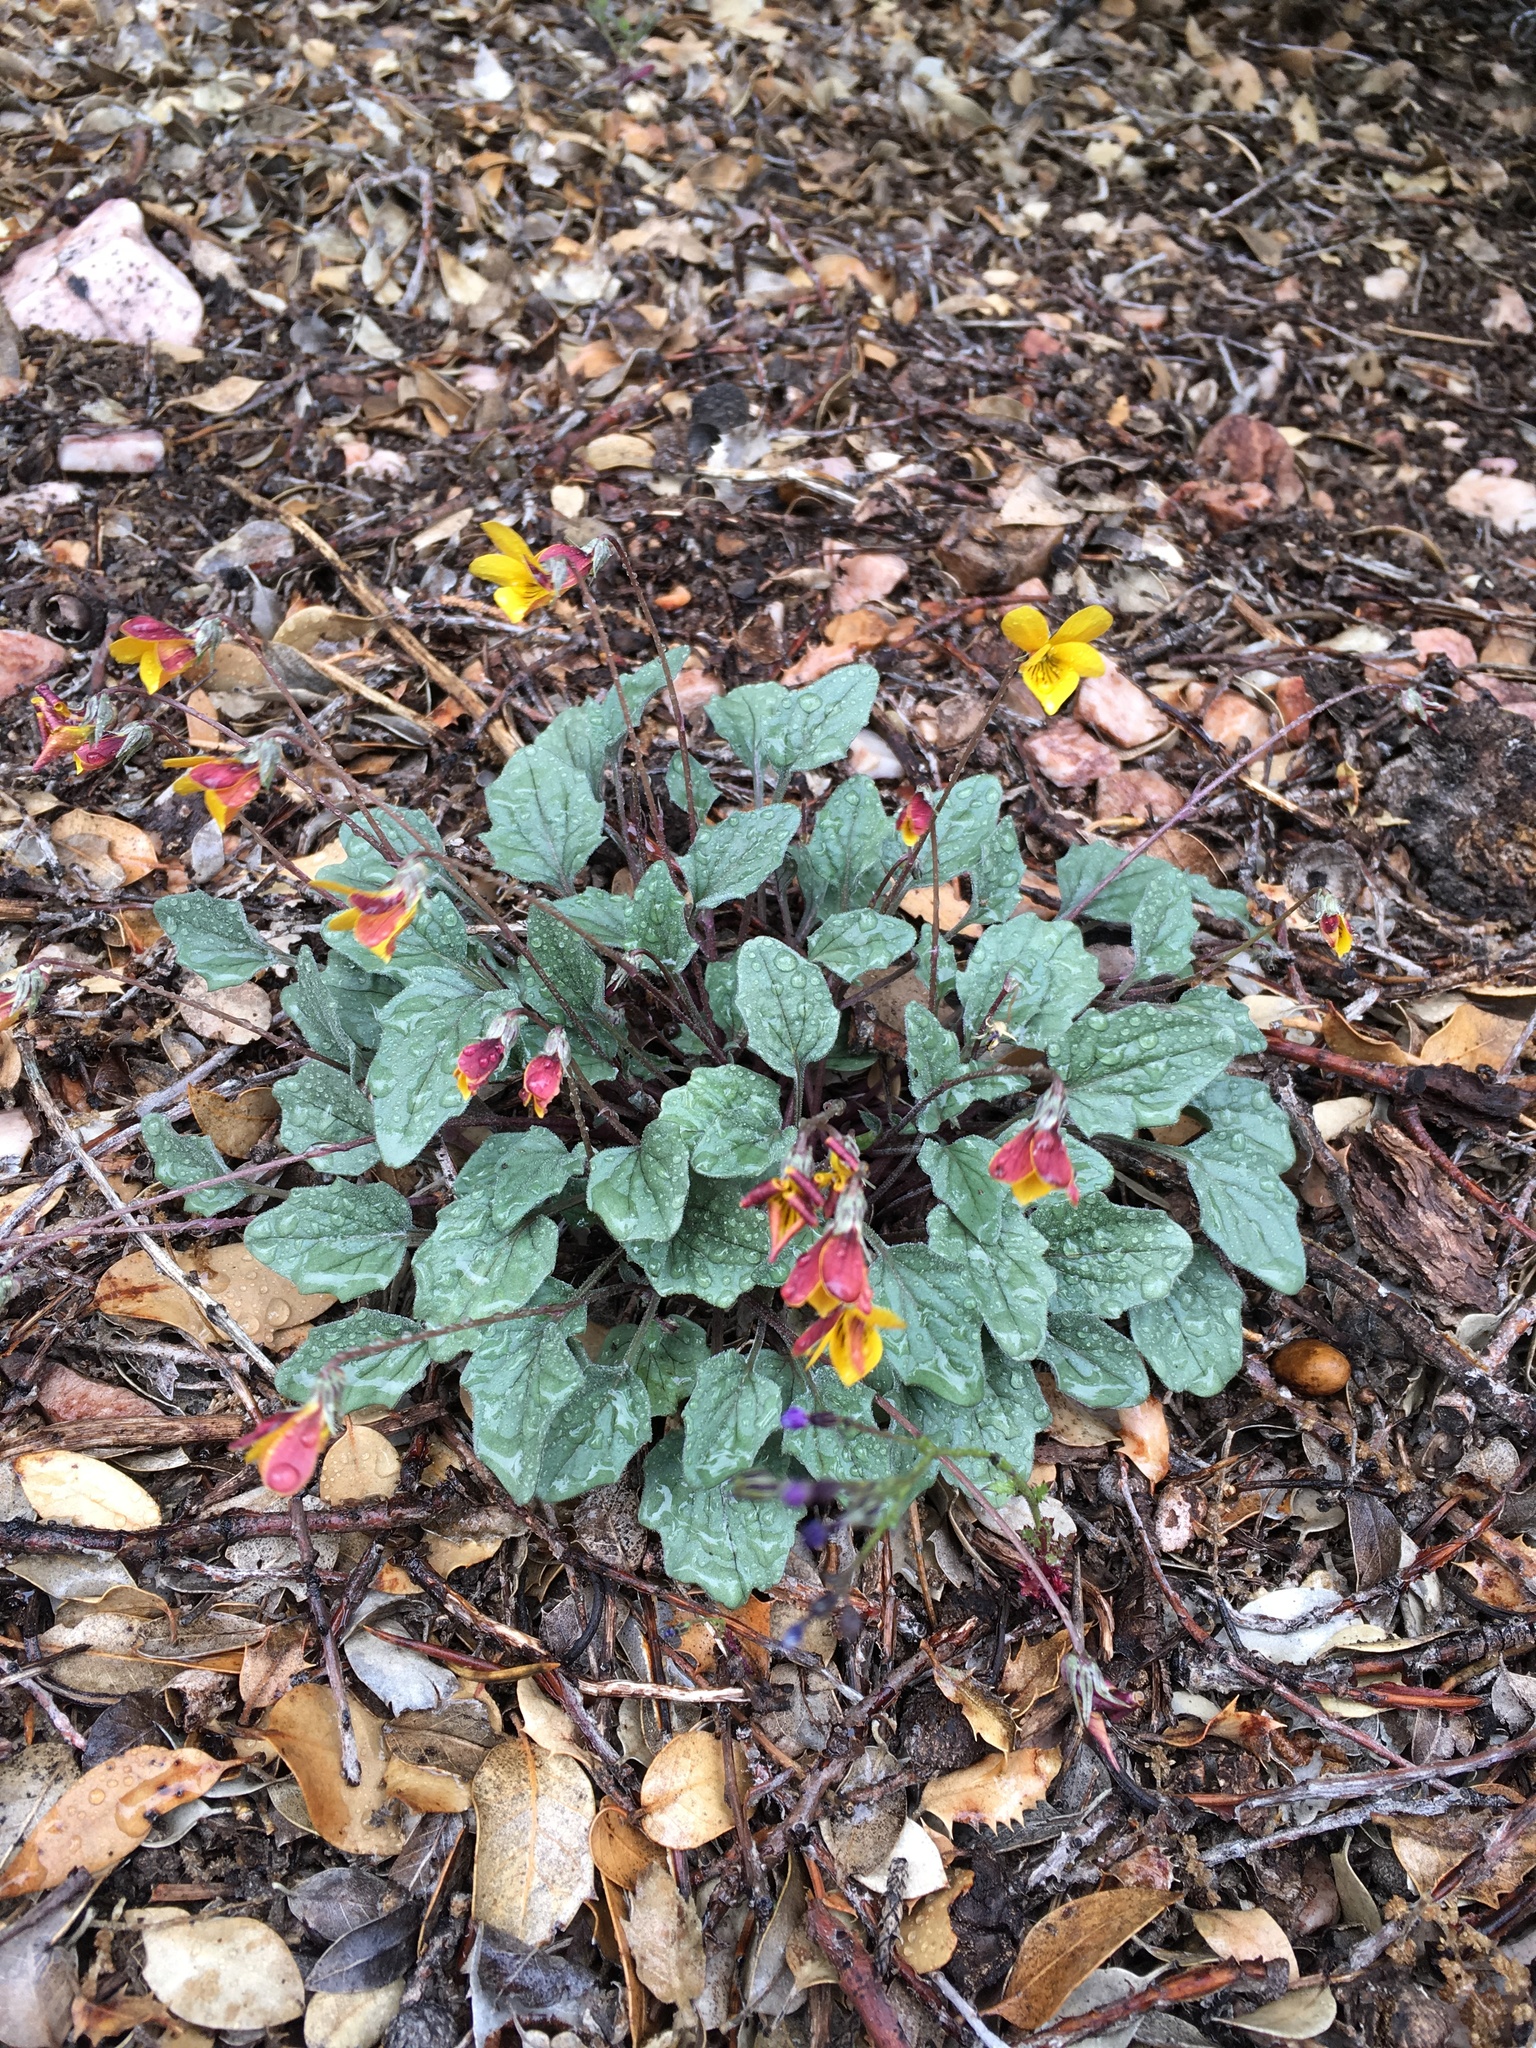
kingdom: Plantae
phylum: Tracheophyta
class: Magnoliopsida
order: Malpighiales
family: Violaceae
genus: Viola
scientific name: Viola purpurea
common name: Pine violet
